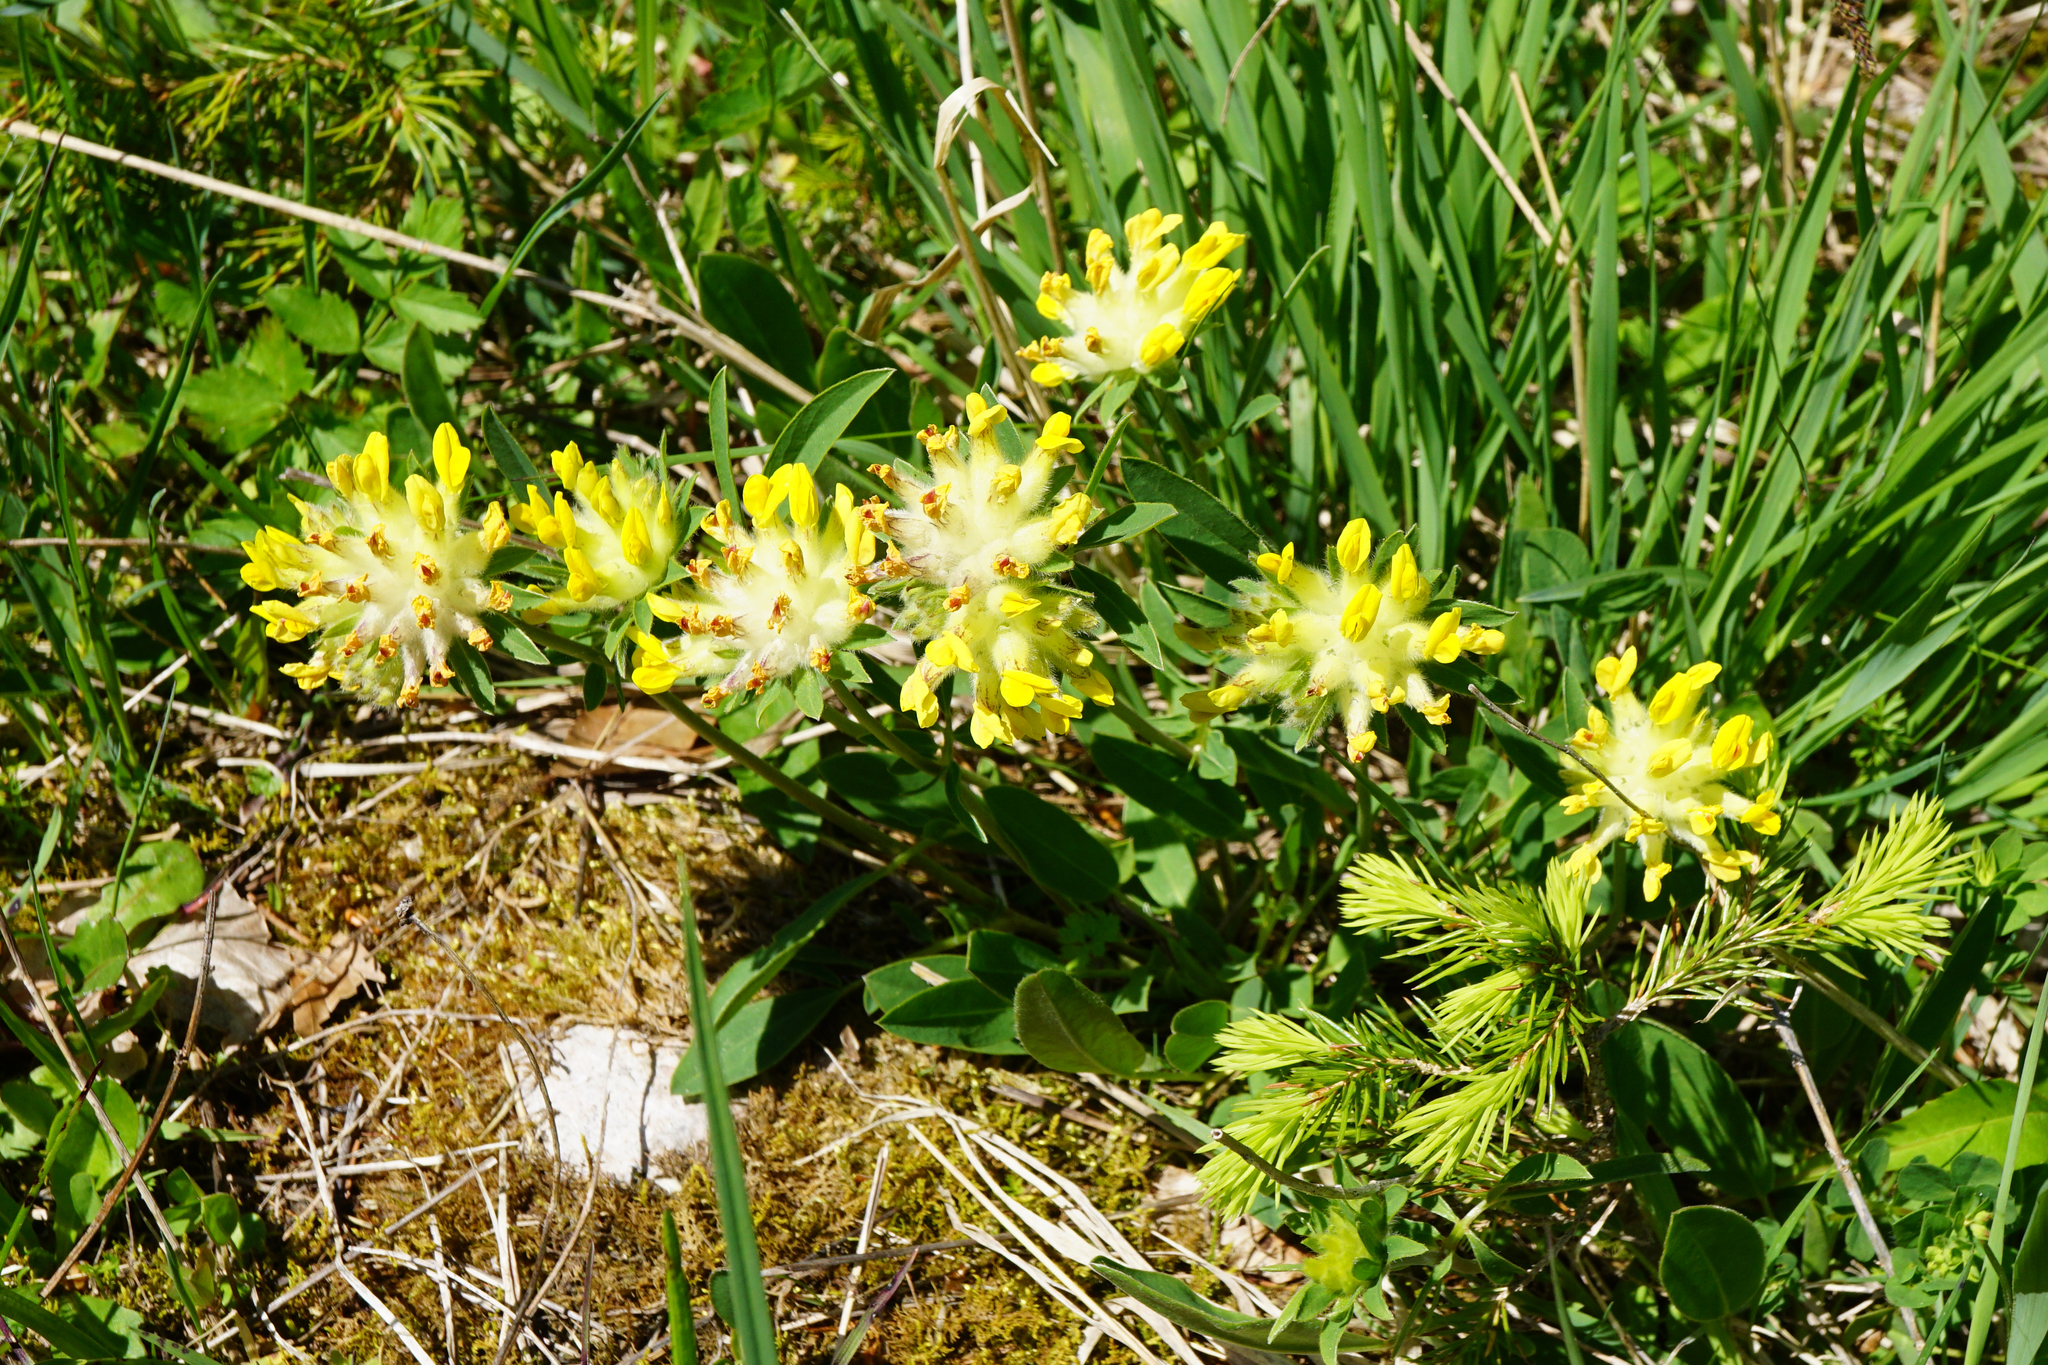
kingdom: Plantae
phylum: Tracheophyta
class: Magnoliopsida
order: Fabales
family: Fabaceae
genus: Anthyllis
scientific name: Anthyllis vulneraria
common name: Kidney vetch
